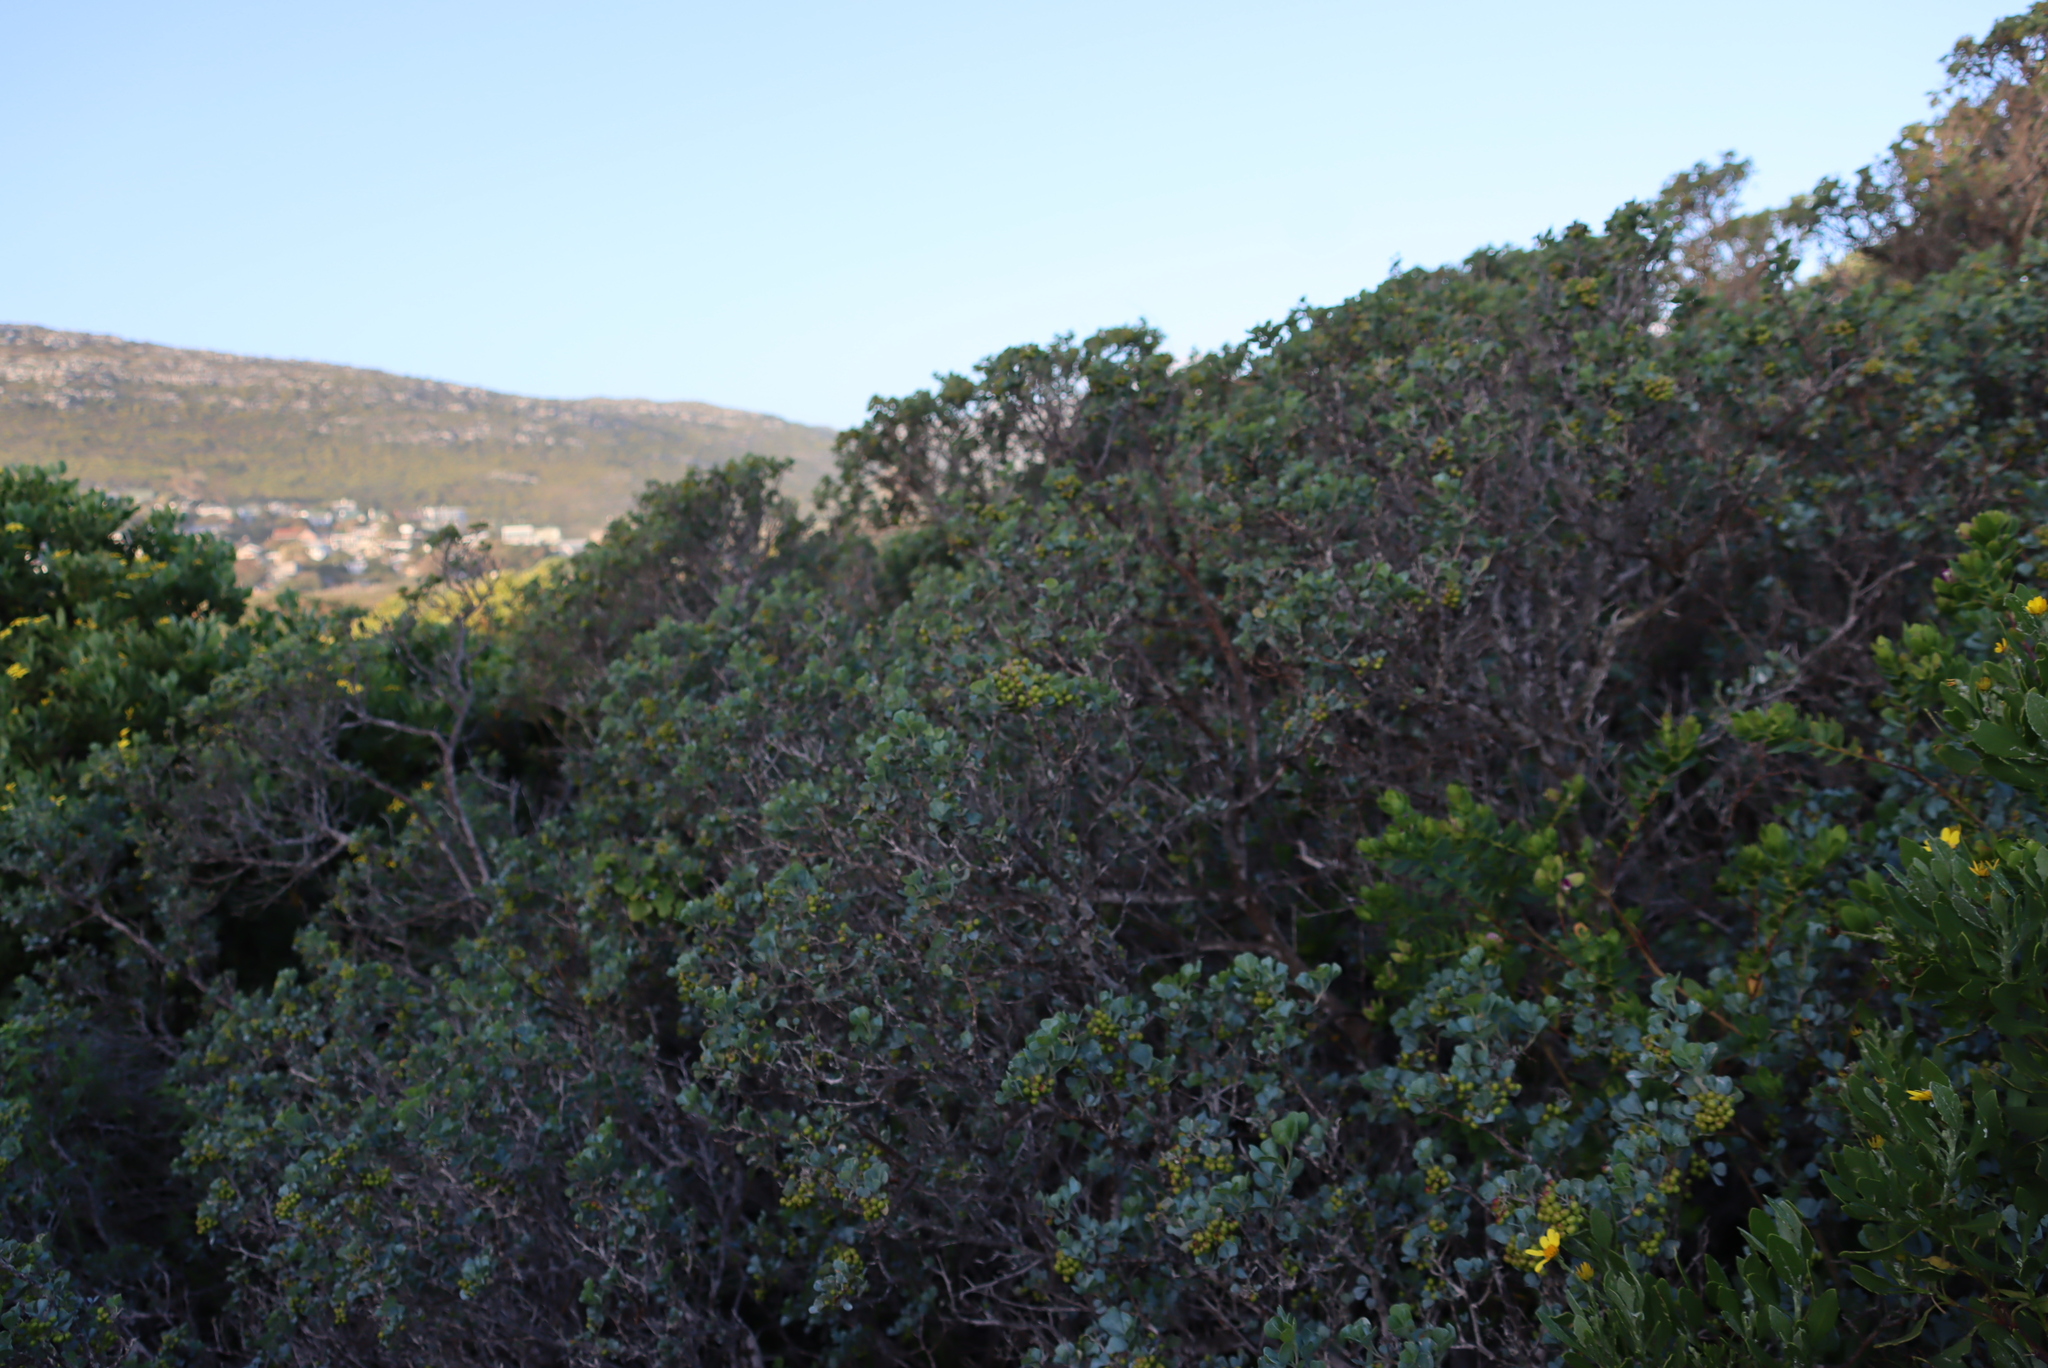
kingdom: Plantae
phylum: Tracheophyta
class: Magnoliopsida
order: Sapindales
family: Anacardiaceae
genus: Searsia
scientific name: Searsia glauca
